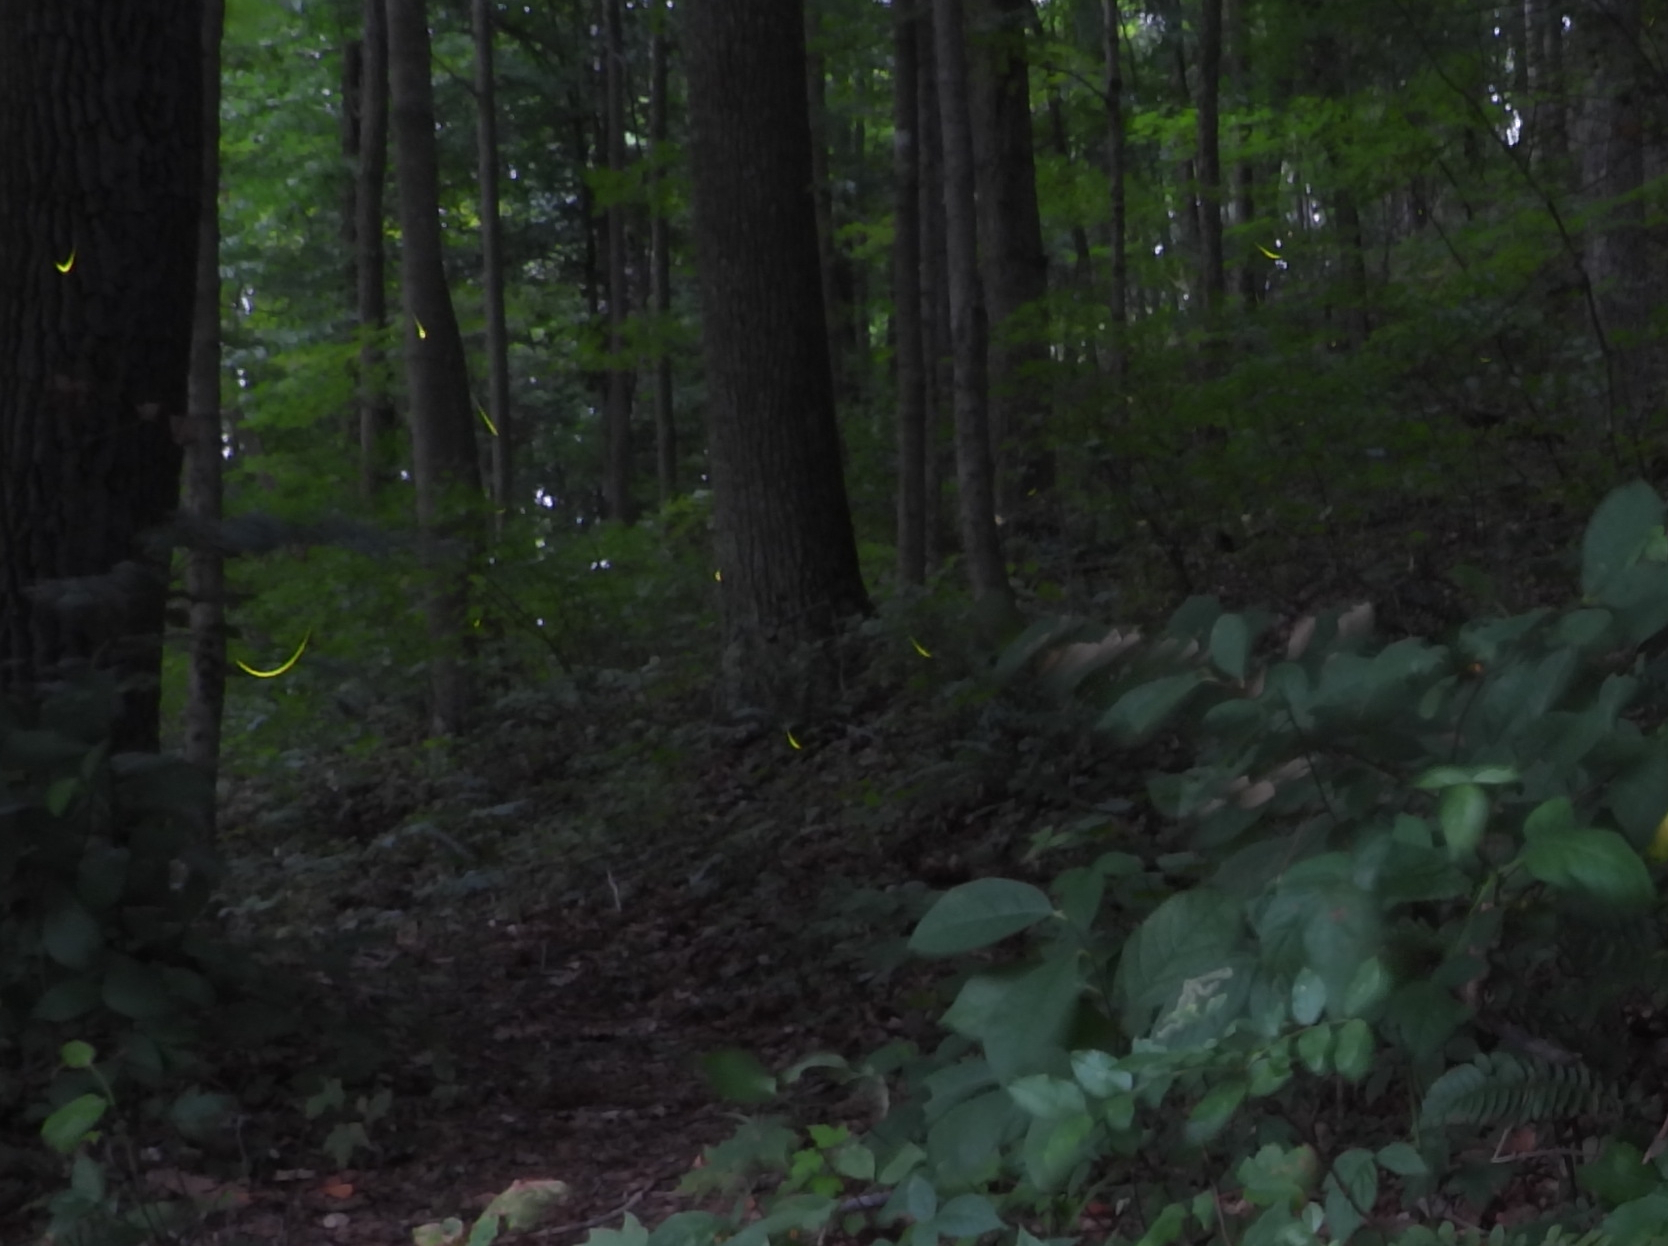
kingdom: Animalia
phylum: Arthropoda
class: Insecta
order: Coleoptera
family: Lampyridae
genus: Photinus
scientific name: Photinus pyralis
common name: Big dipper firefly
